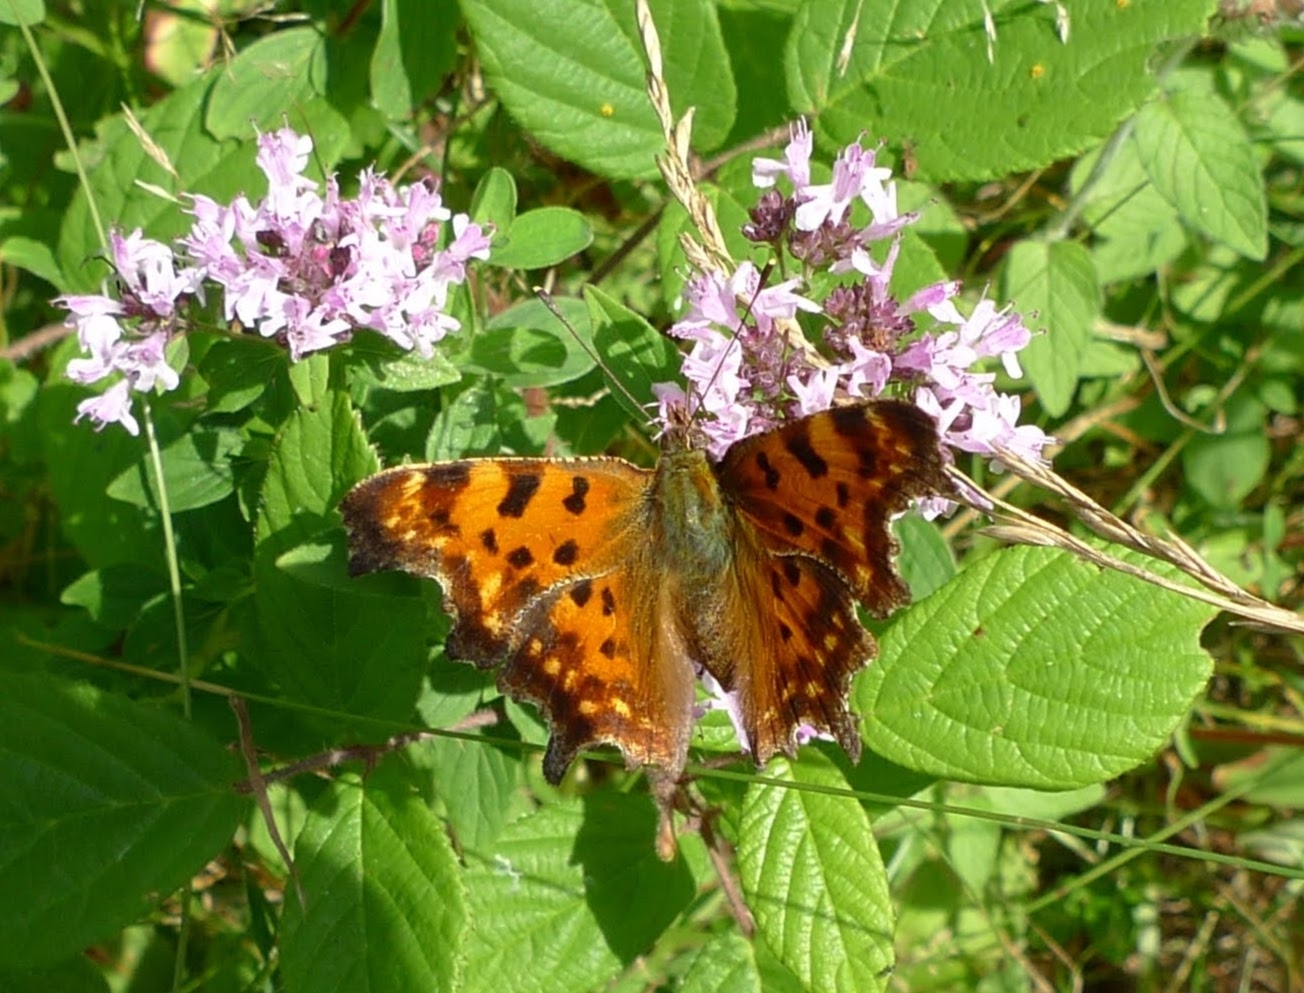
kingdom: Animalia
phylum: Arthropoda
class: Insecta
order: Lepidoptera
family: Nymphalidae
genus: Polygonia
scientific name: Polygonia c-album
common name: Comma
